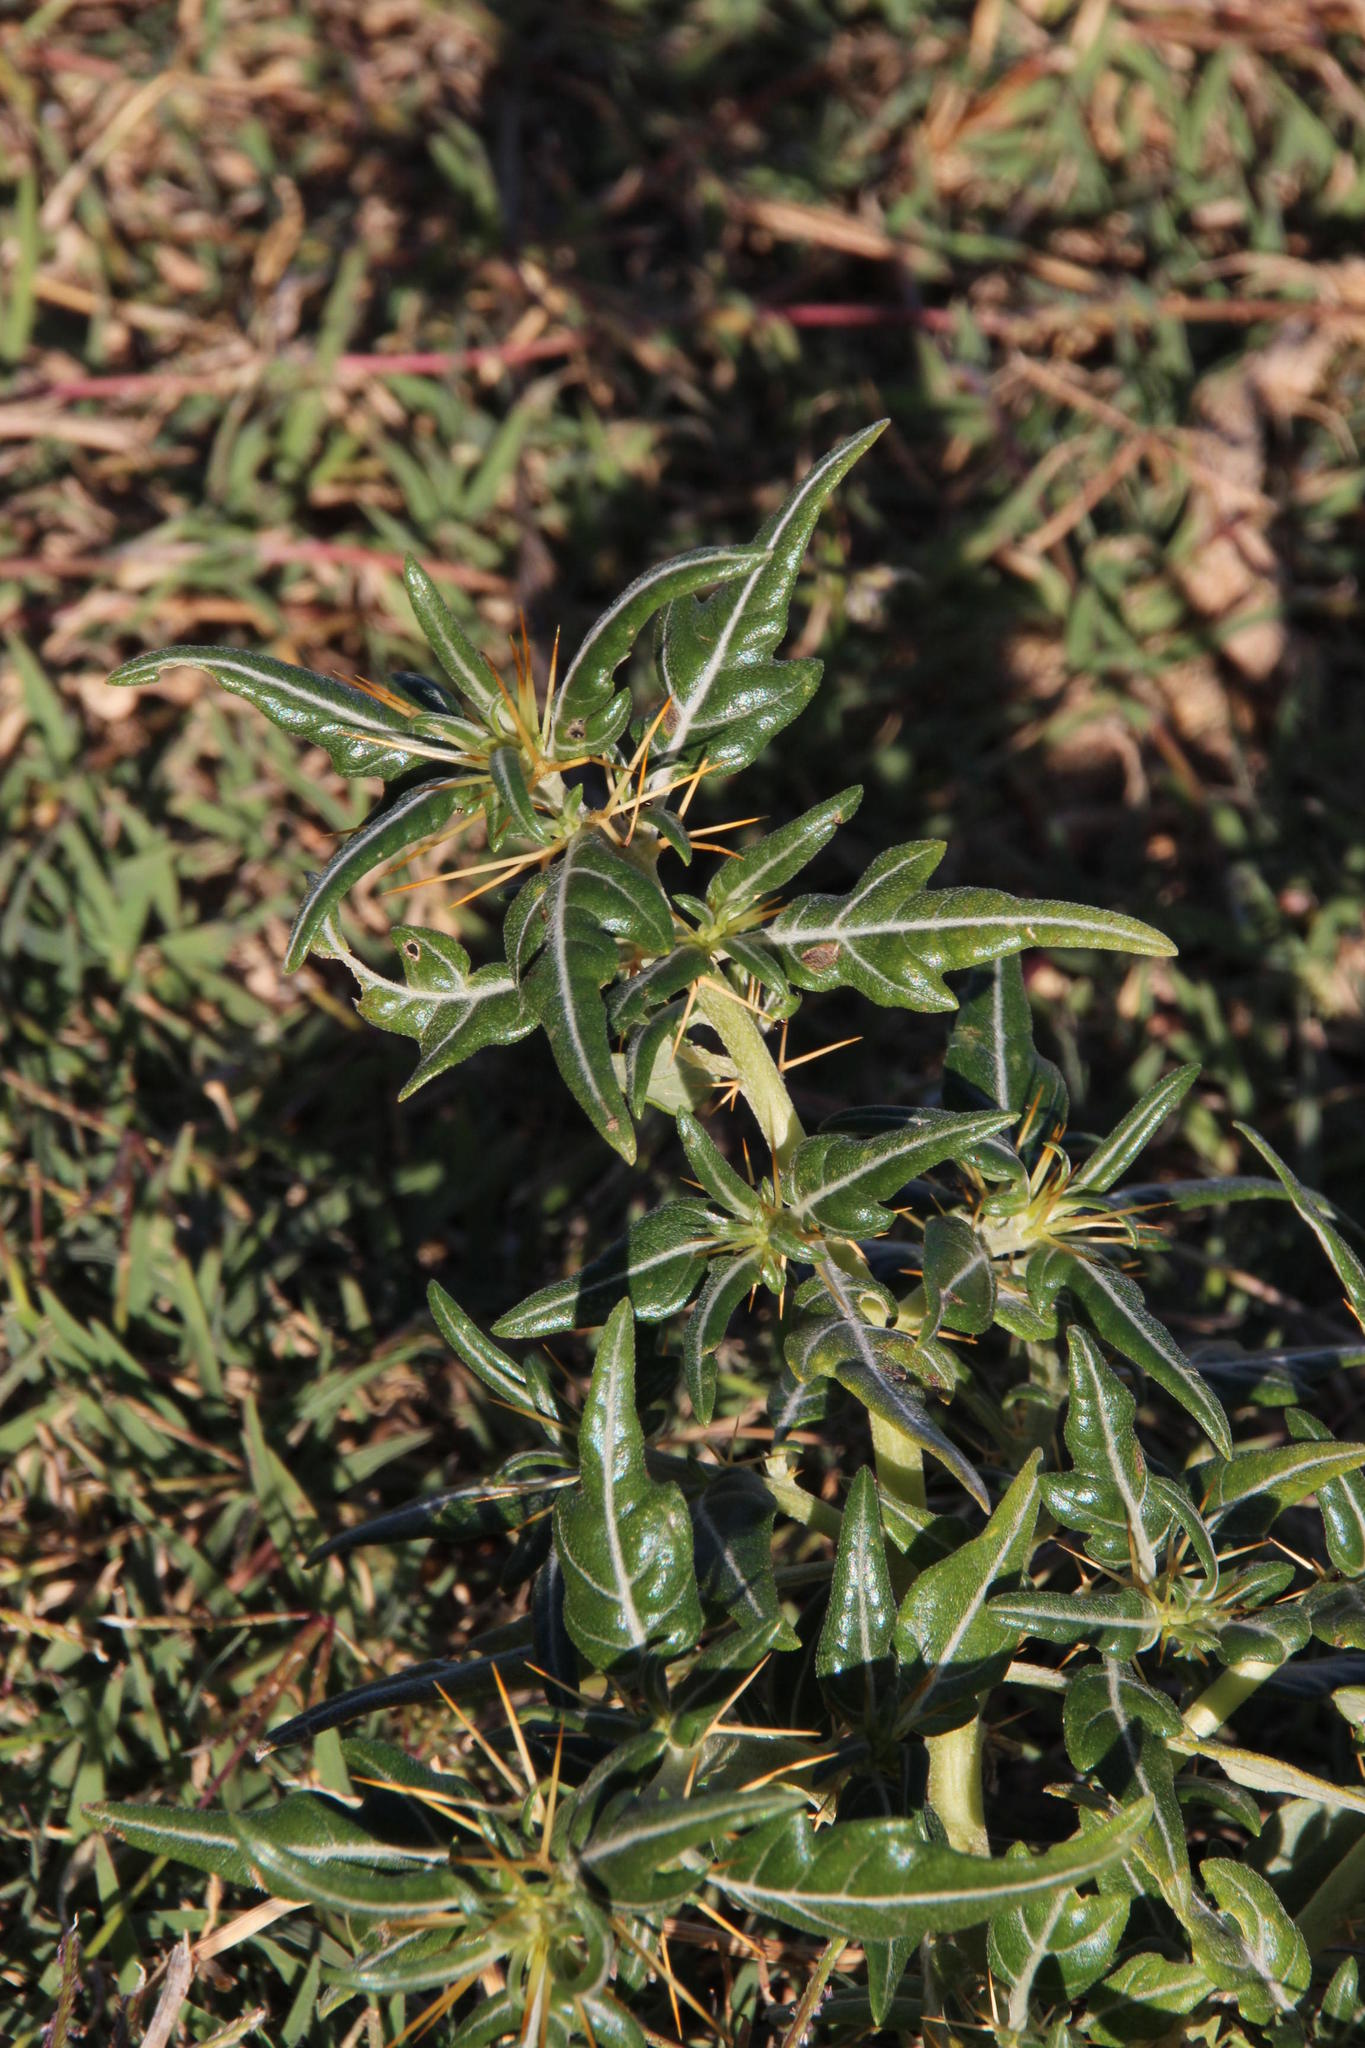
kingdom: Plantae
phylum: Tracheophyta
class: Magnoliopsida
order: Asterales
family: Asteraceae
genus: Xanthium
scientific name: Xanthium spinosum
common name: Spiny cocklebur
